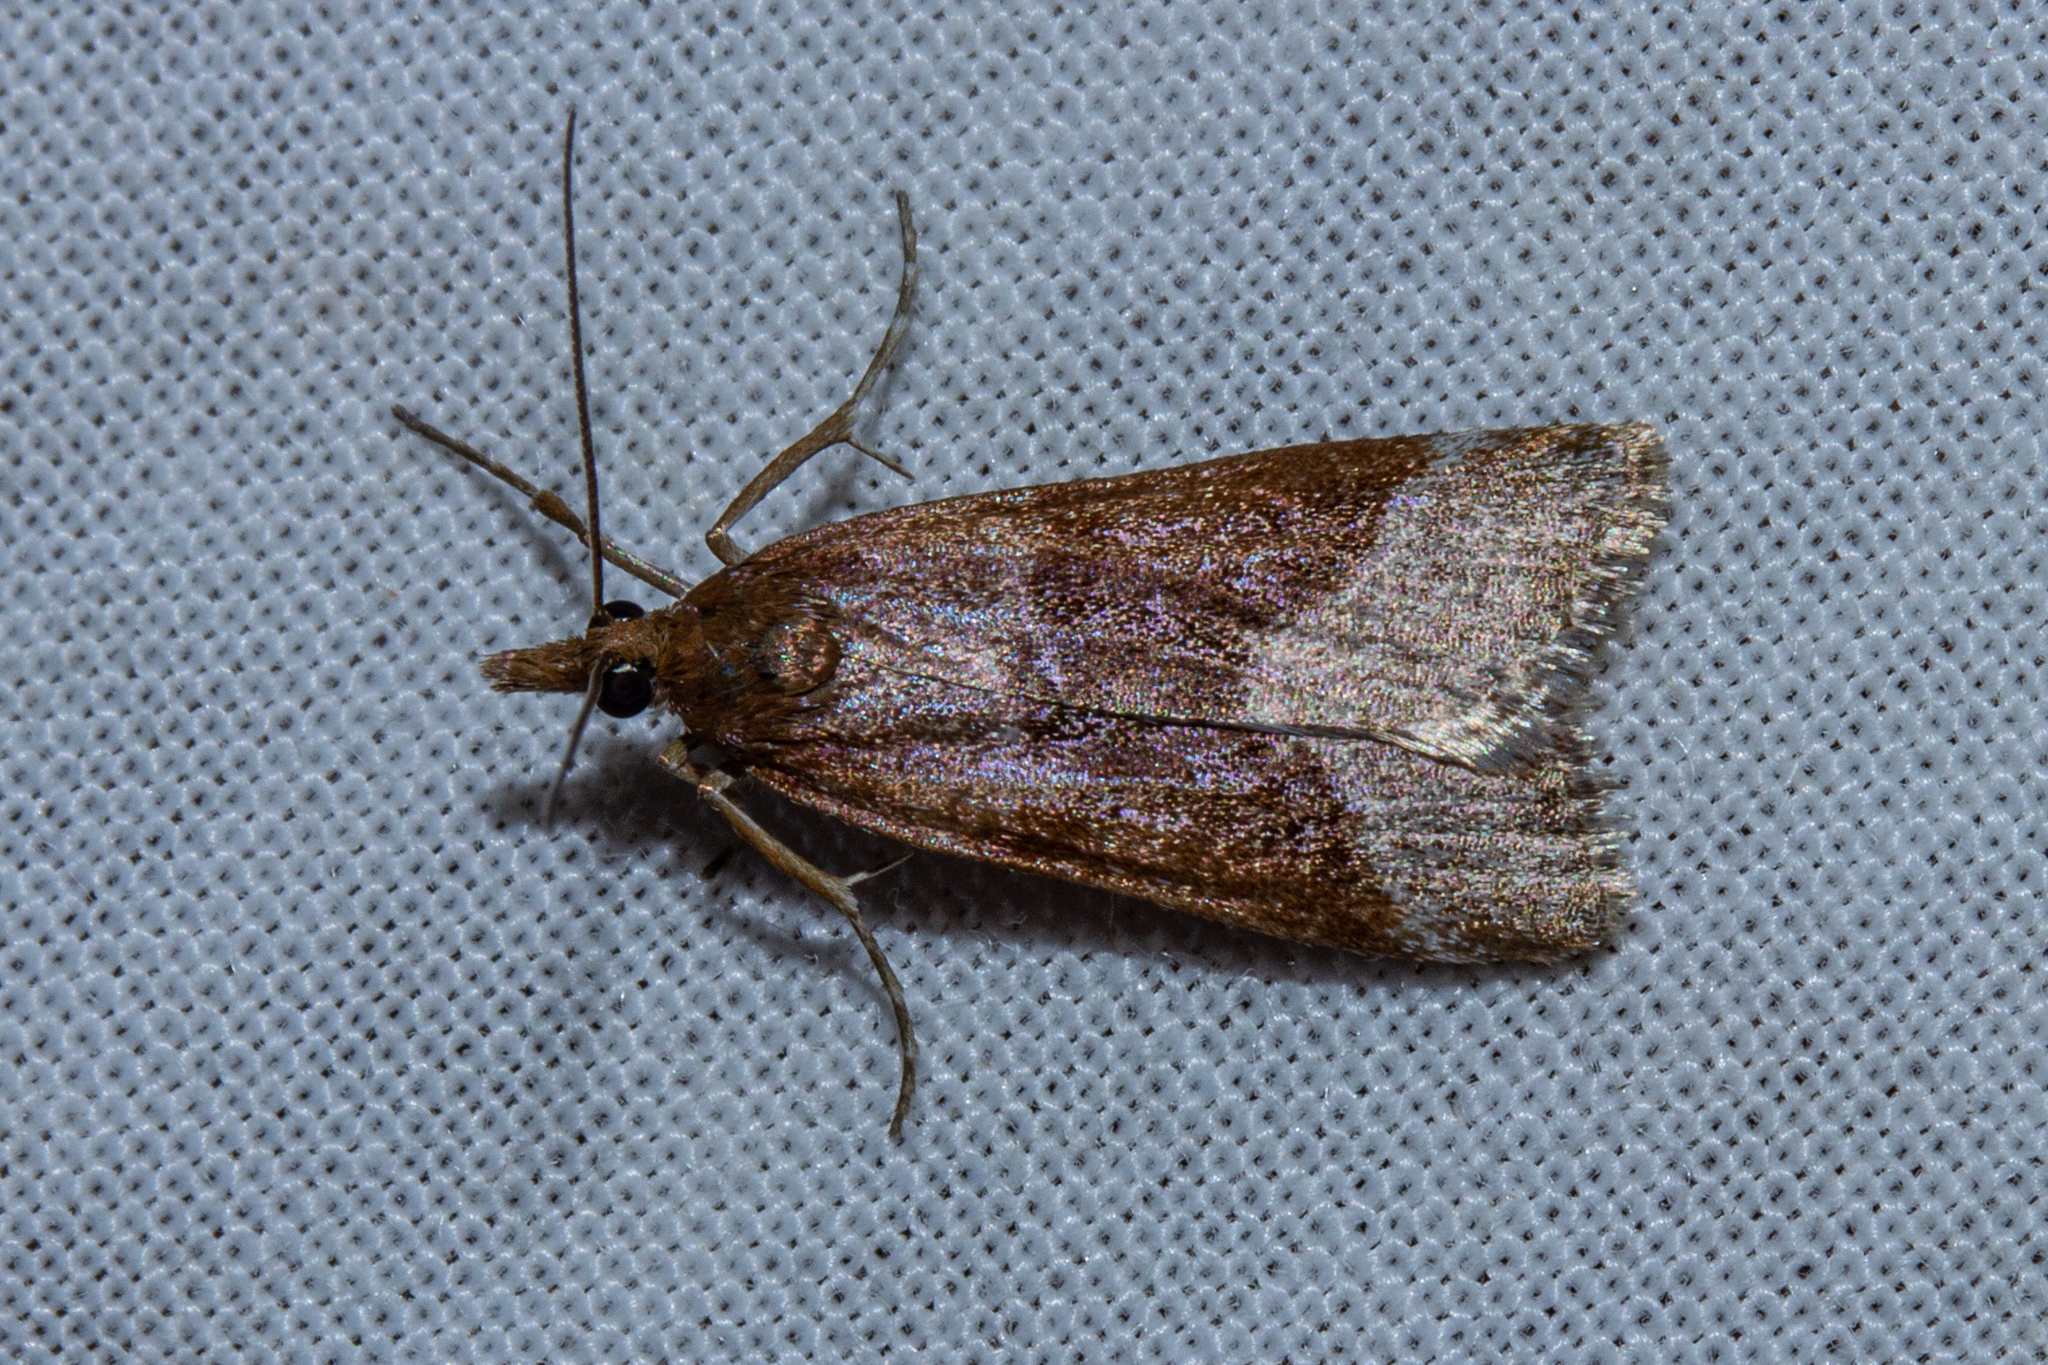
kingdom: Animalia
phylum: Arthropoda
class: Insecta
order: Lepidoptera
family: Crambidae
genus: Eudonia
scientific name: Eudonia feredayi
